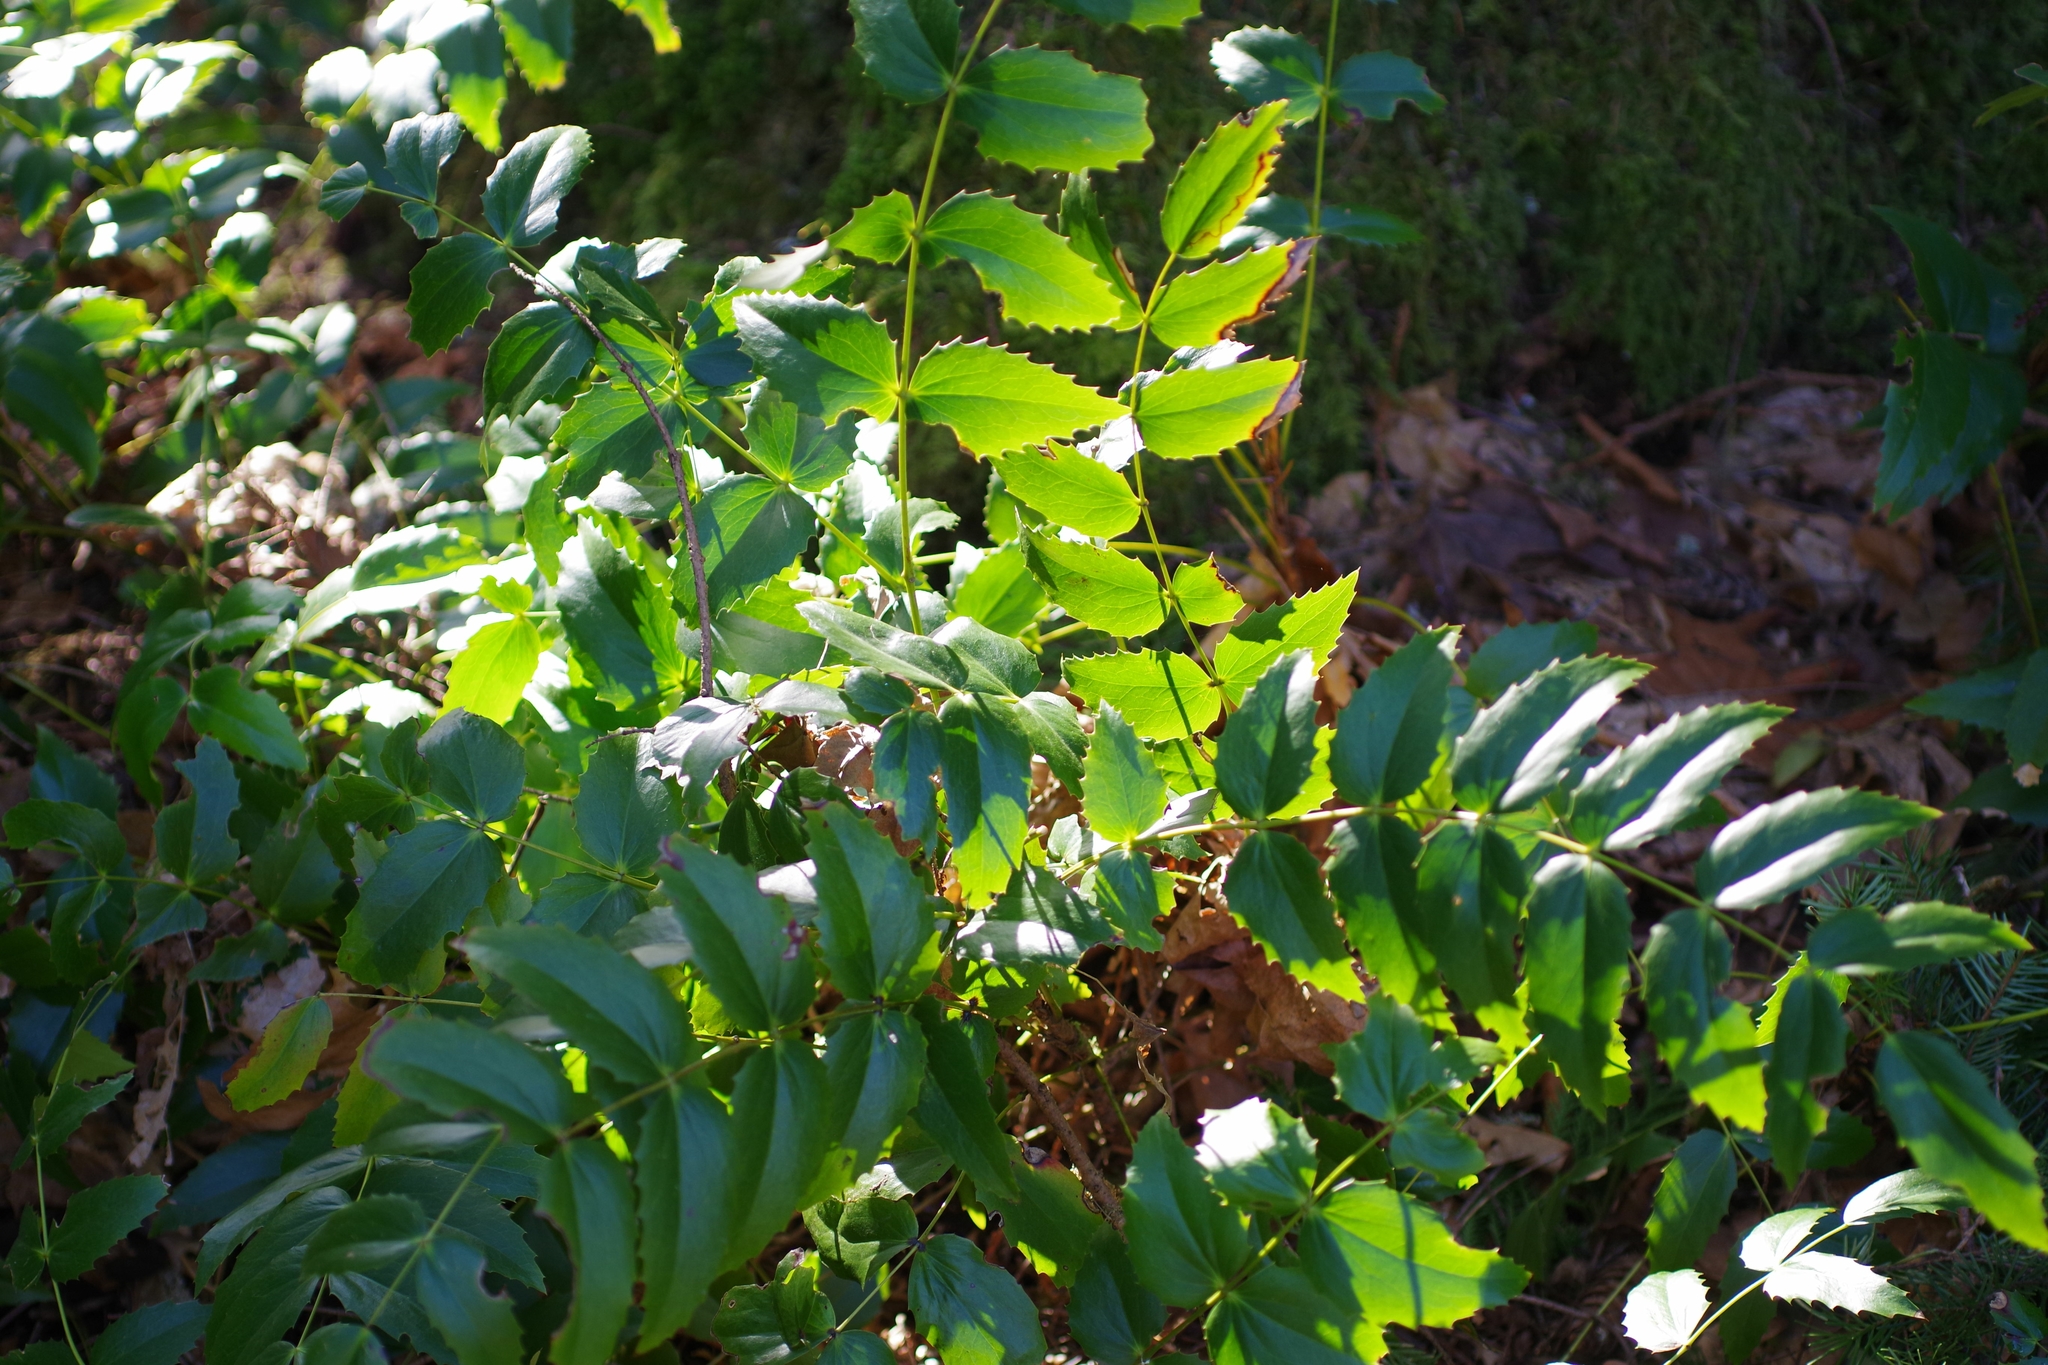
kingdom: Plantae
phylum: Tracheophyta
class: Magnoliopsida
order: Ranunculales
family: Berberidaceae
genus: Mahonia
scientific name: Mahonia nervosa
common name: Cascade oregon-grape
